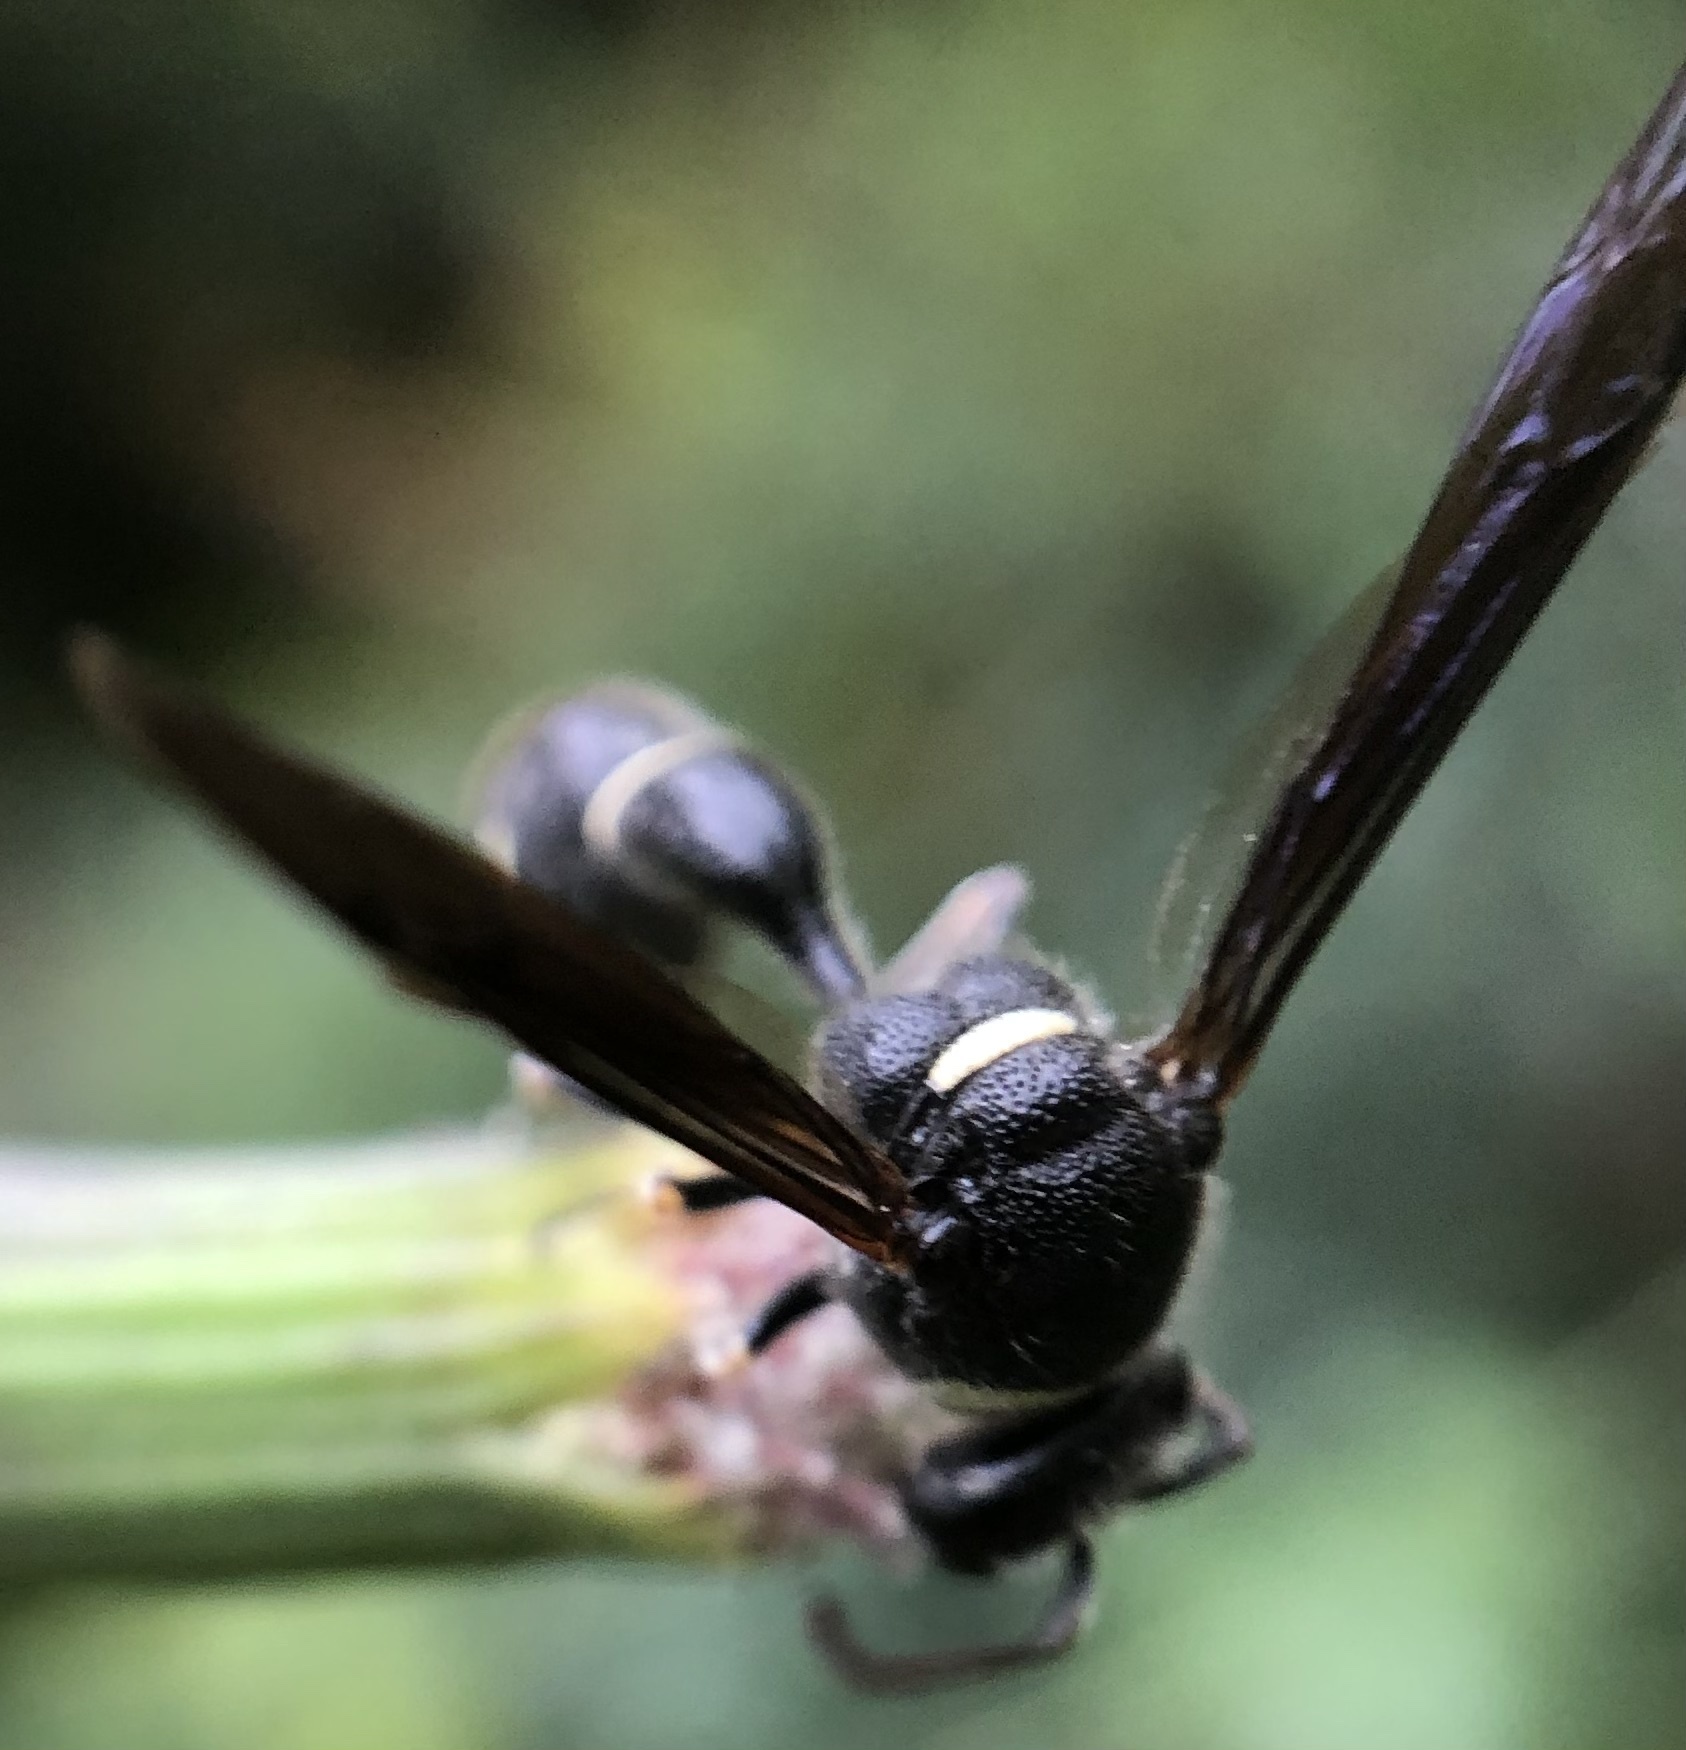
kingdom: Animalia
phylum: Arthropoda
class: Insecta
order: Hymenoptera
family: Vespidae
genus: Eumenes
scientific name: Eumenes fraternus
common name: Fraternal potter wasp
